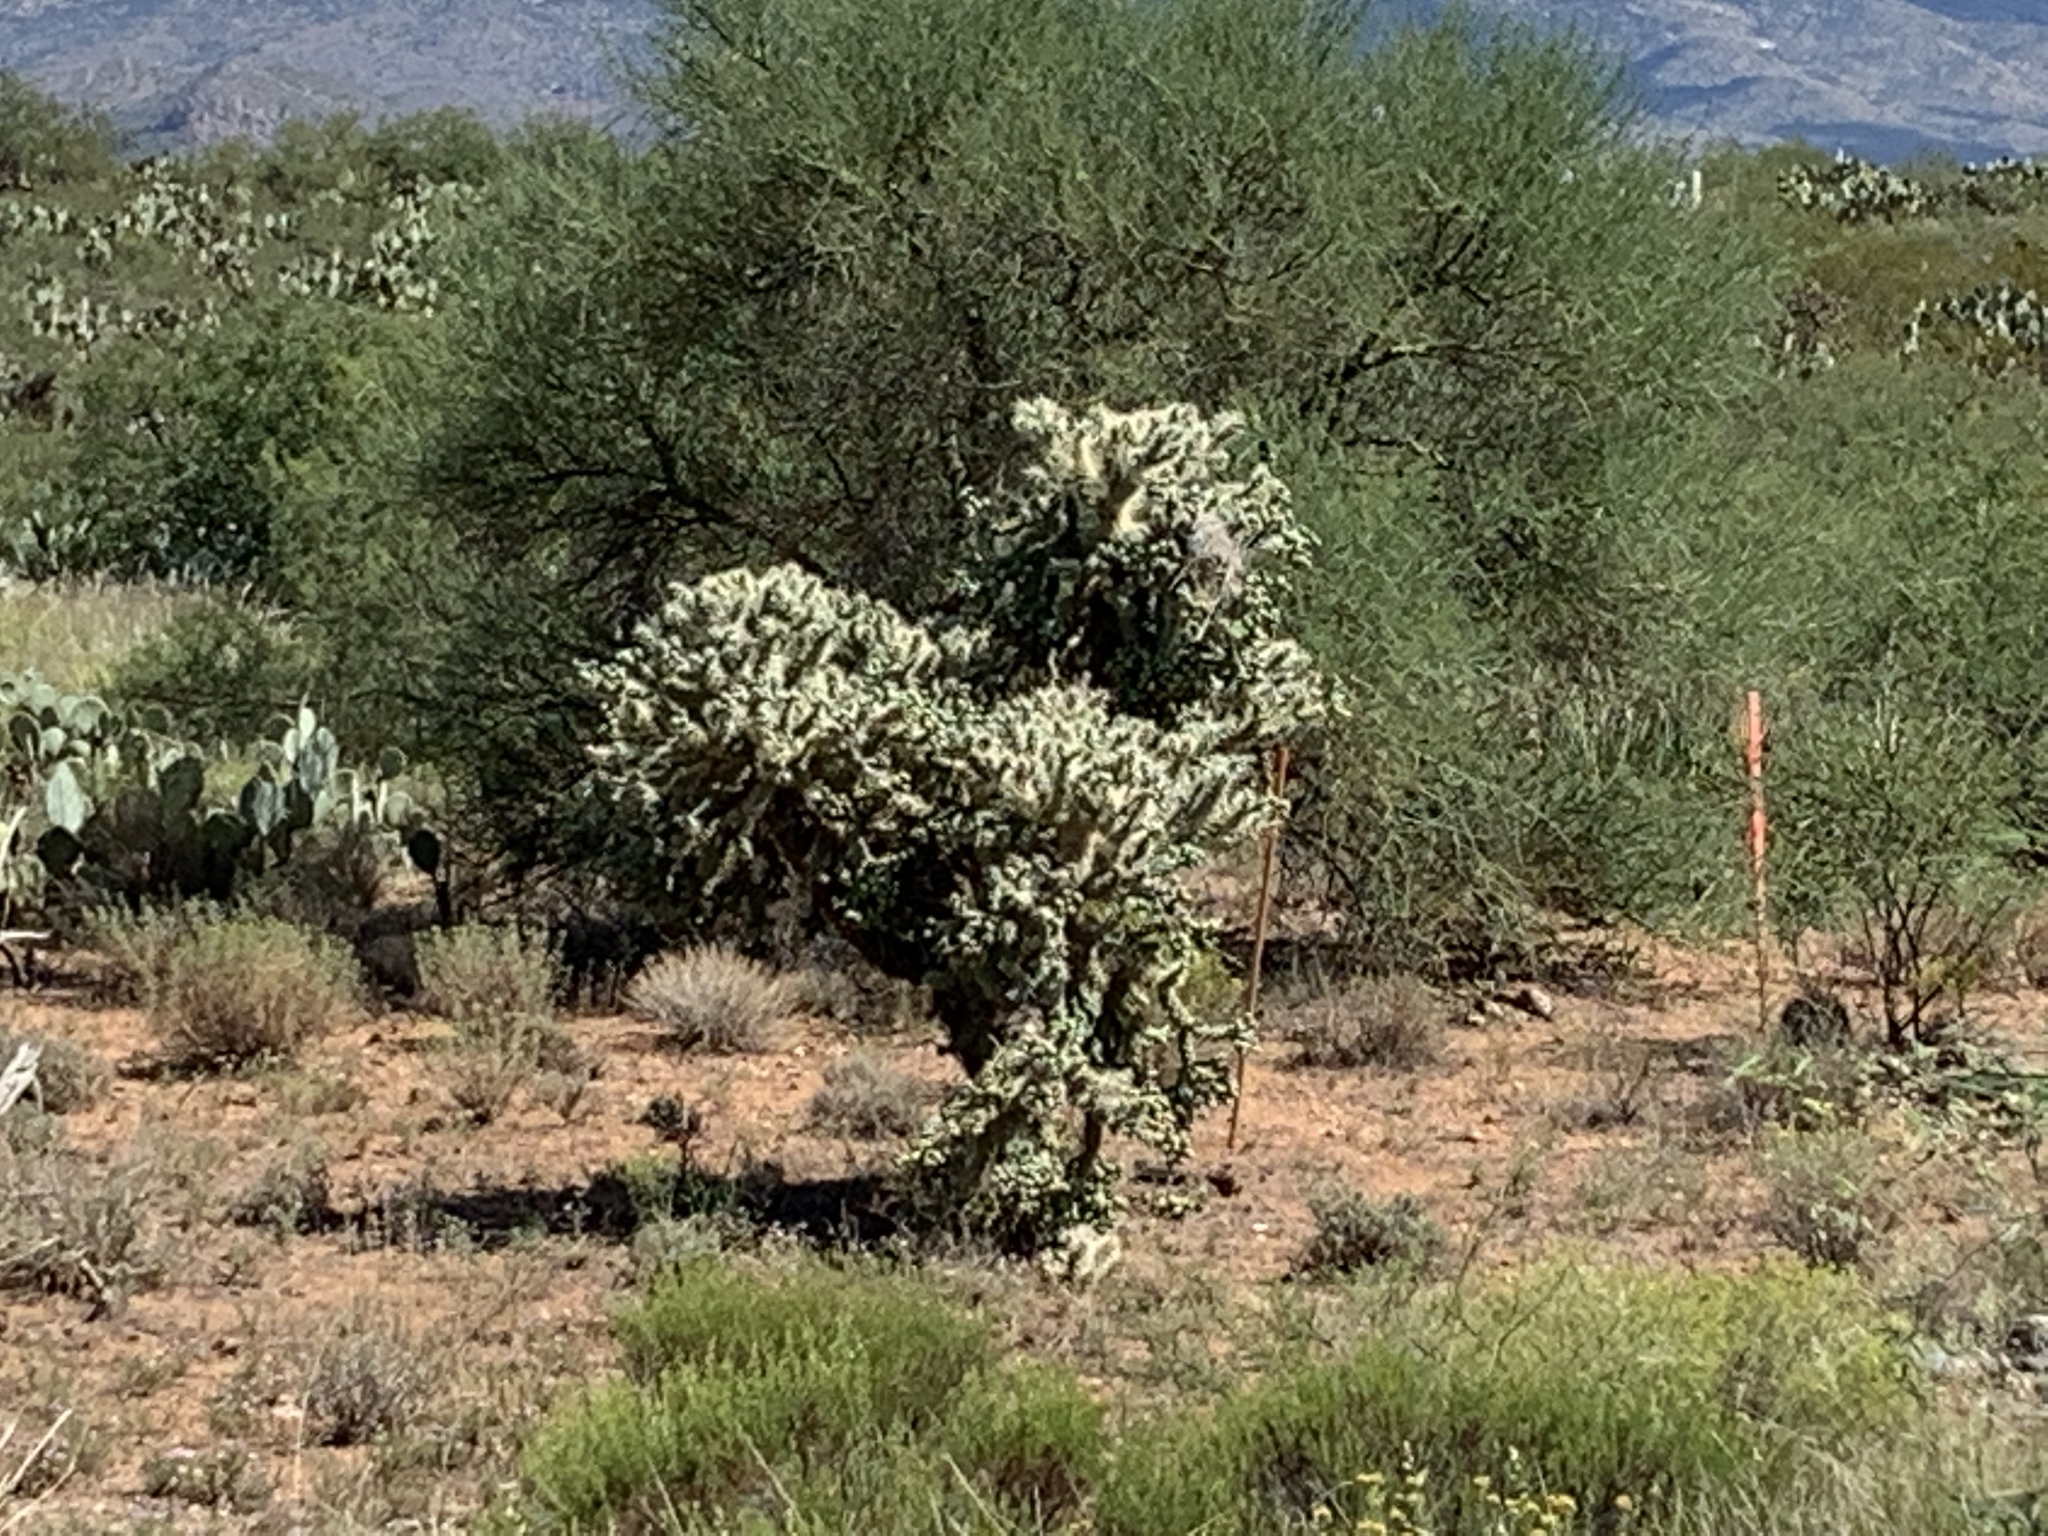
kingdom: Plantae
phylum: Tracheophyta
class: Magnoliopsida
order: Caryophyllales
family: Cactaceae
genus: Cylindropuntia
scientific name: Cylindropuntia fulgida
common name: Jumping cholla
